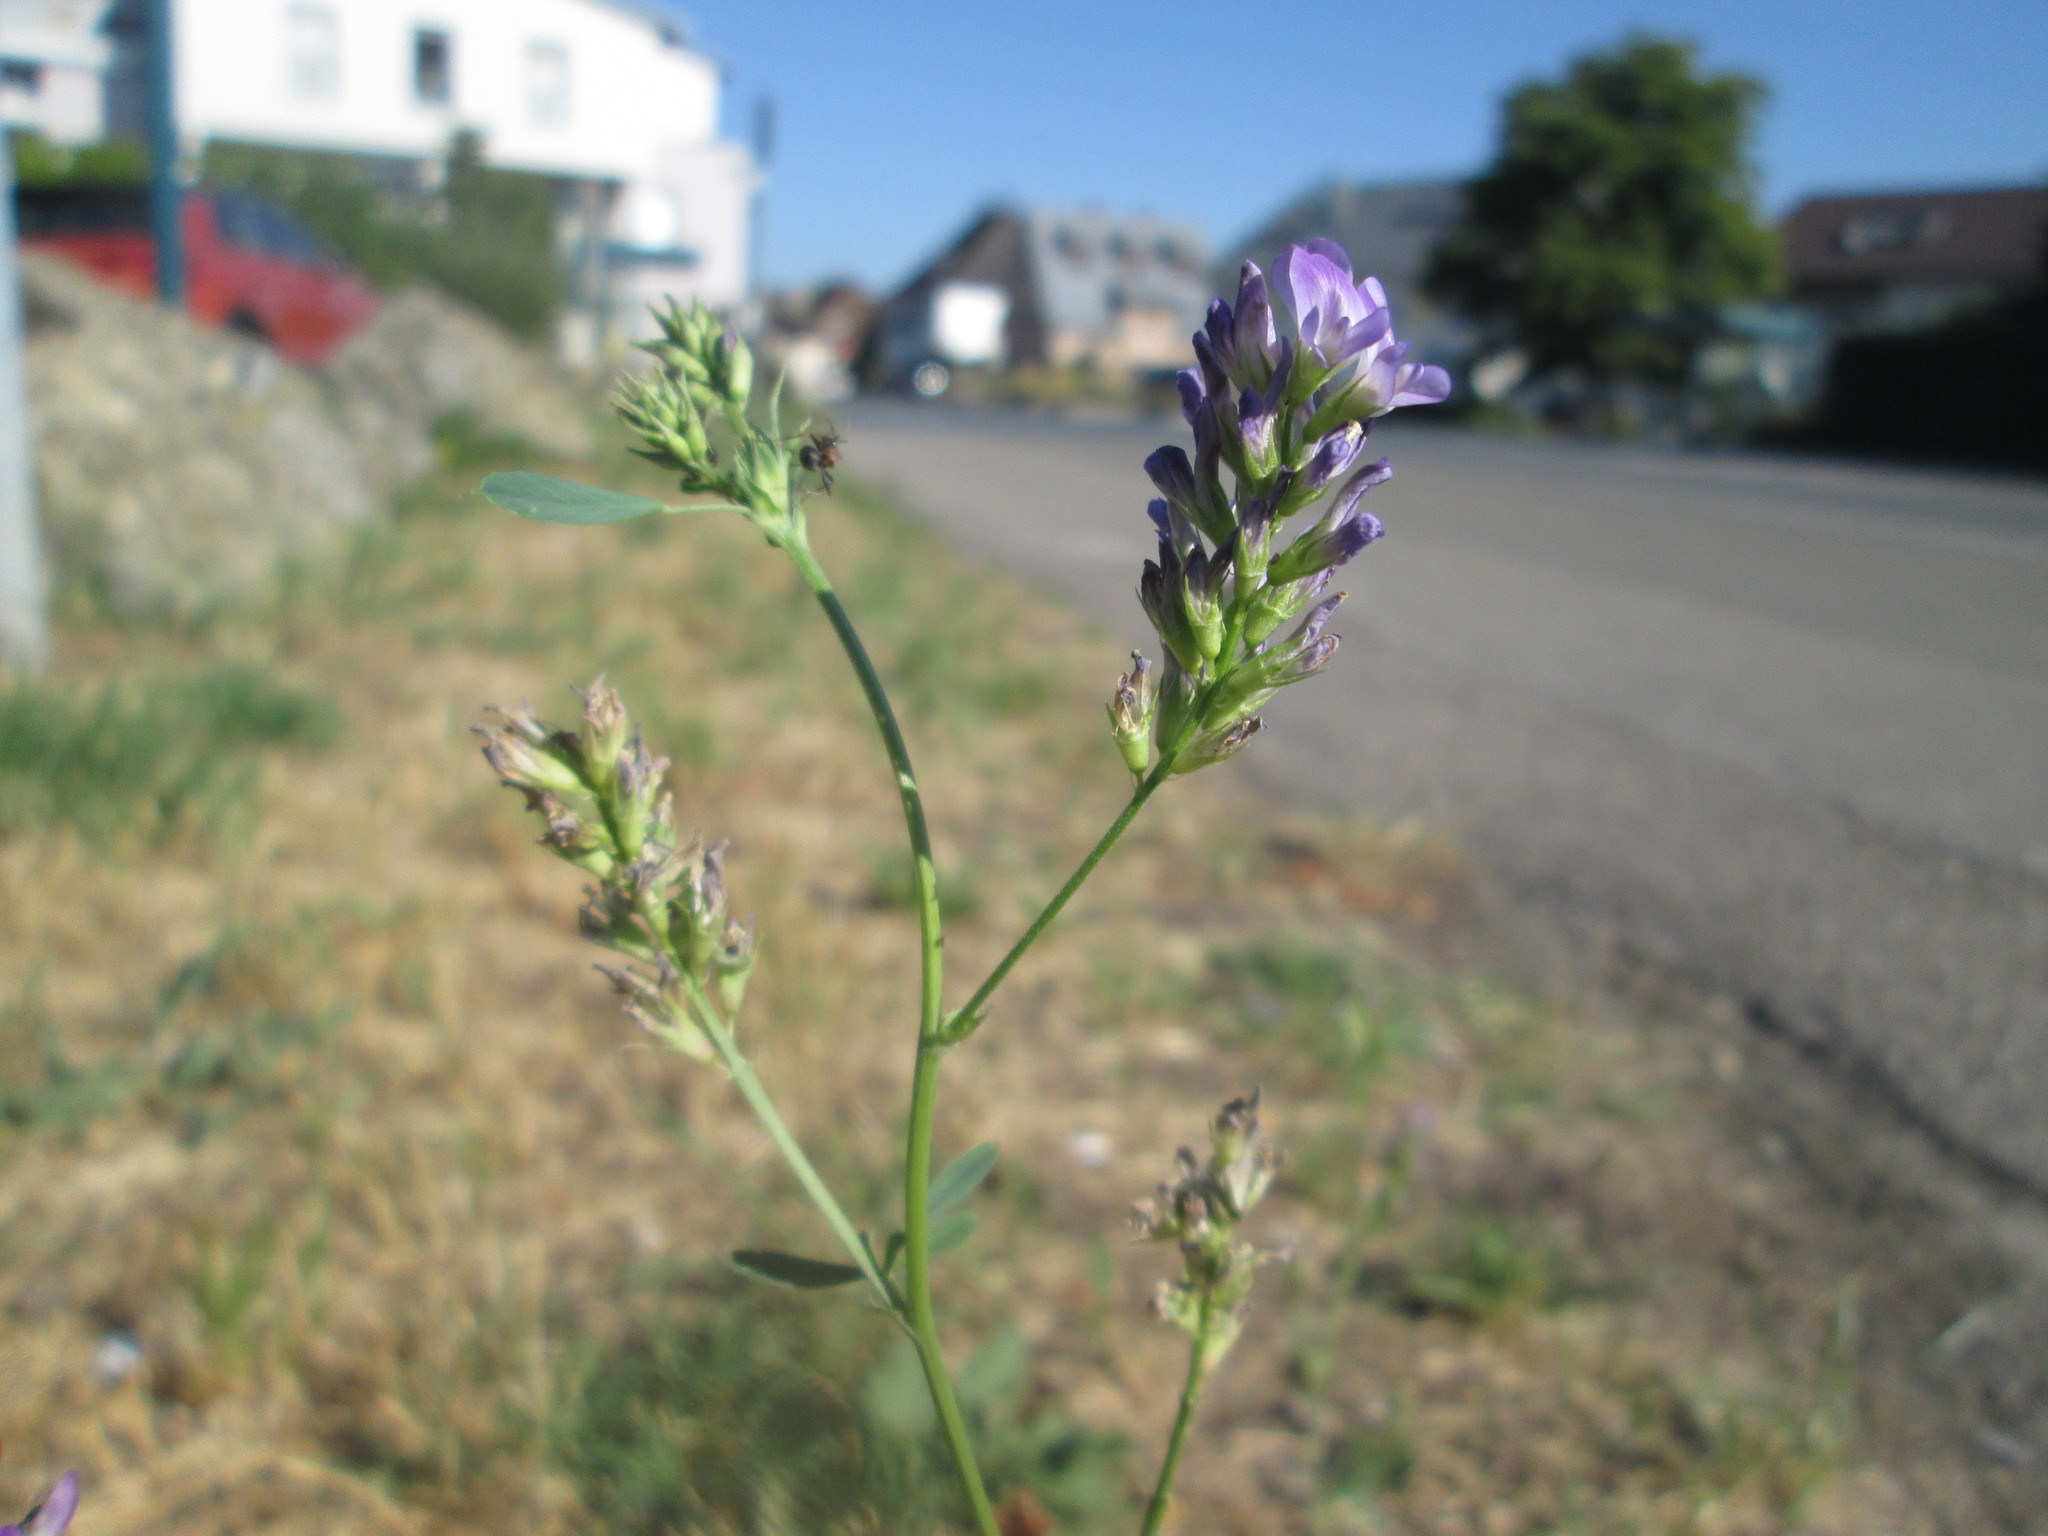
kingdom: Plantae
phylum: Tracheophyta
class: Magnoliopsida
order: Fabales
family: Fabaceae
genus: Medicago
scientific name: Medicago sativa
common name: Alfalfa
